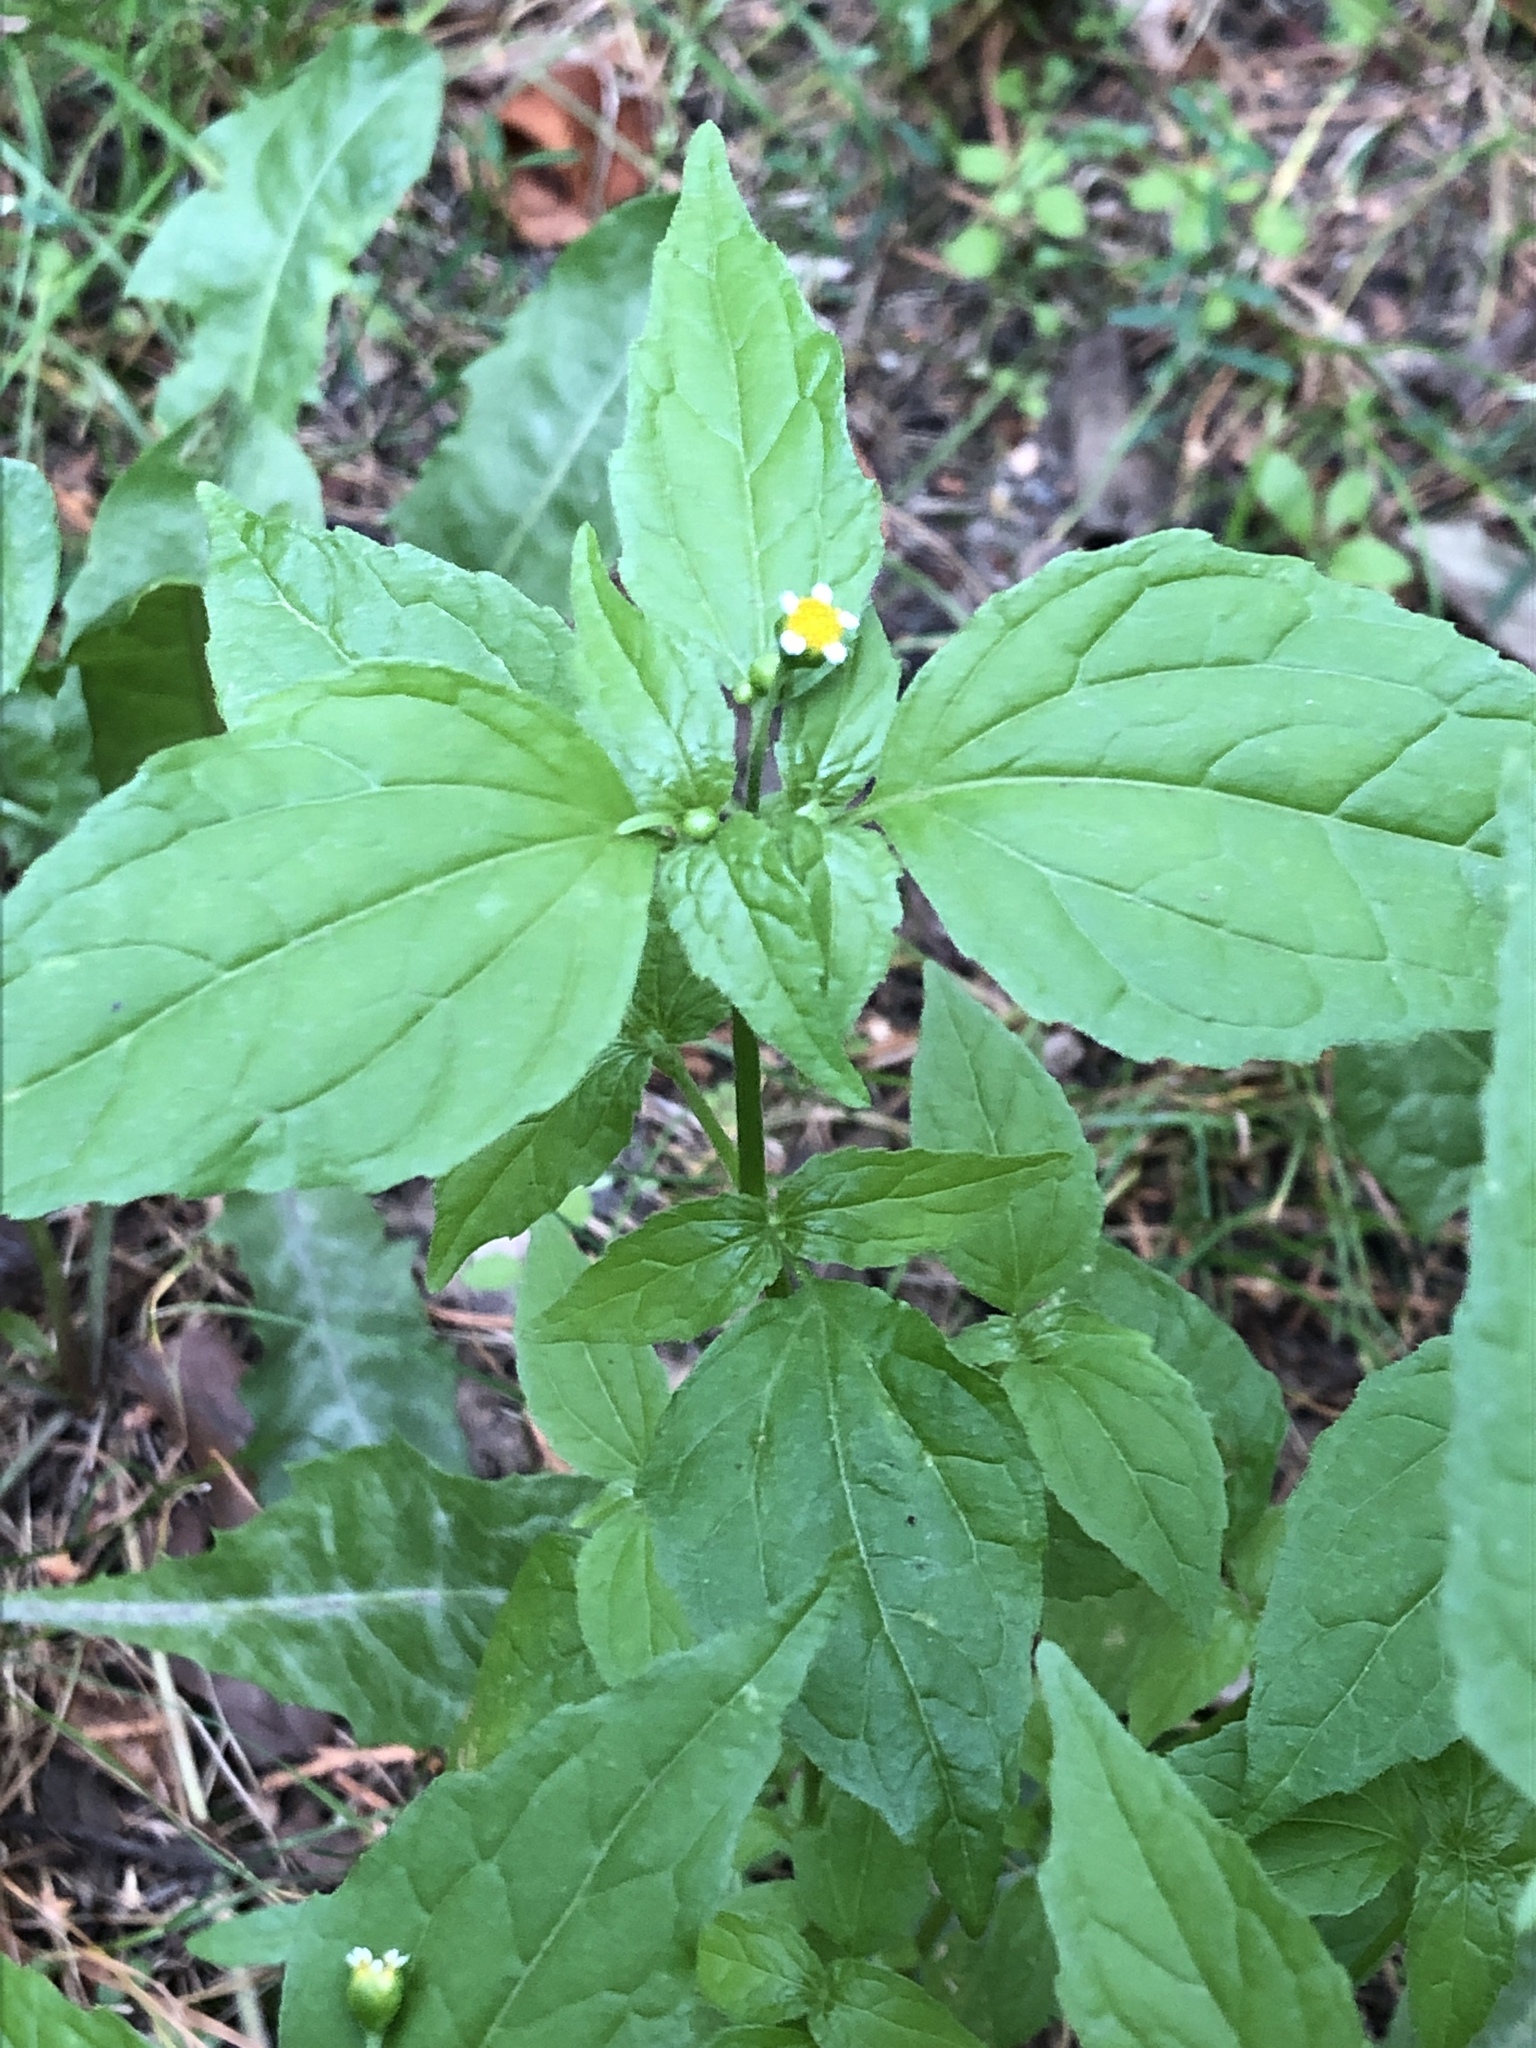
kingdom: Plantae
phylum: Tracheophyta
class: Magnoliopsida
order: Asterales
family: Asteraceae
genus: Galinsoga
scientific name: Galinsoga parviflora
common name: Gallant soldier
